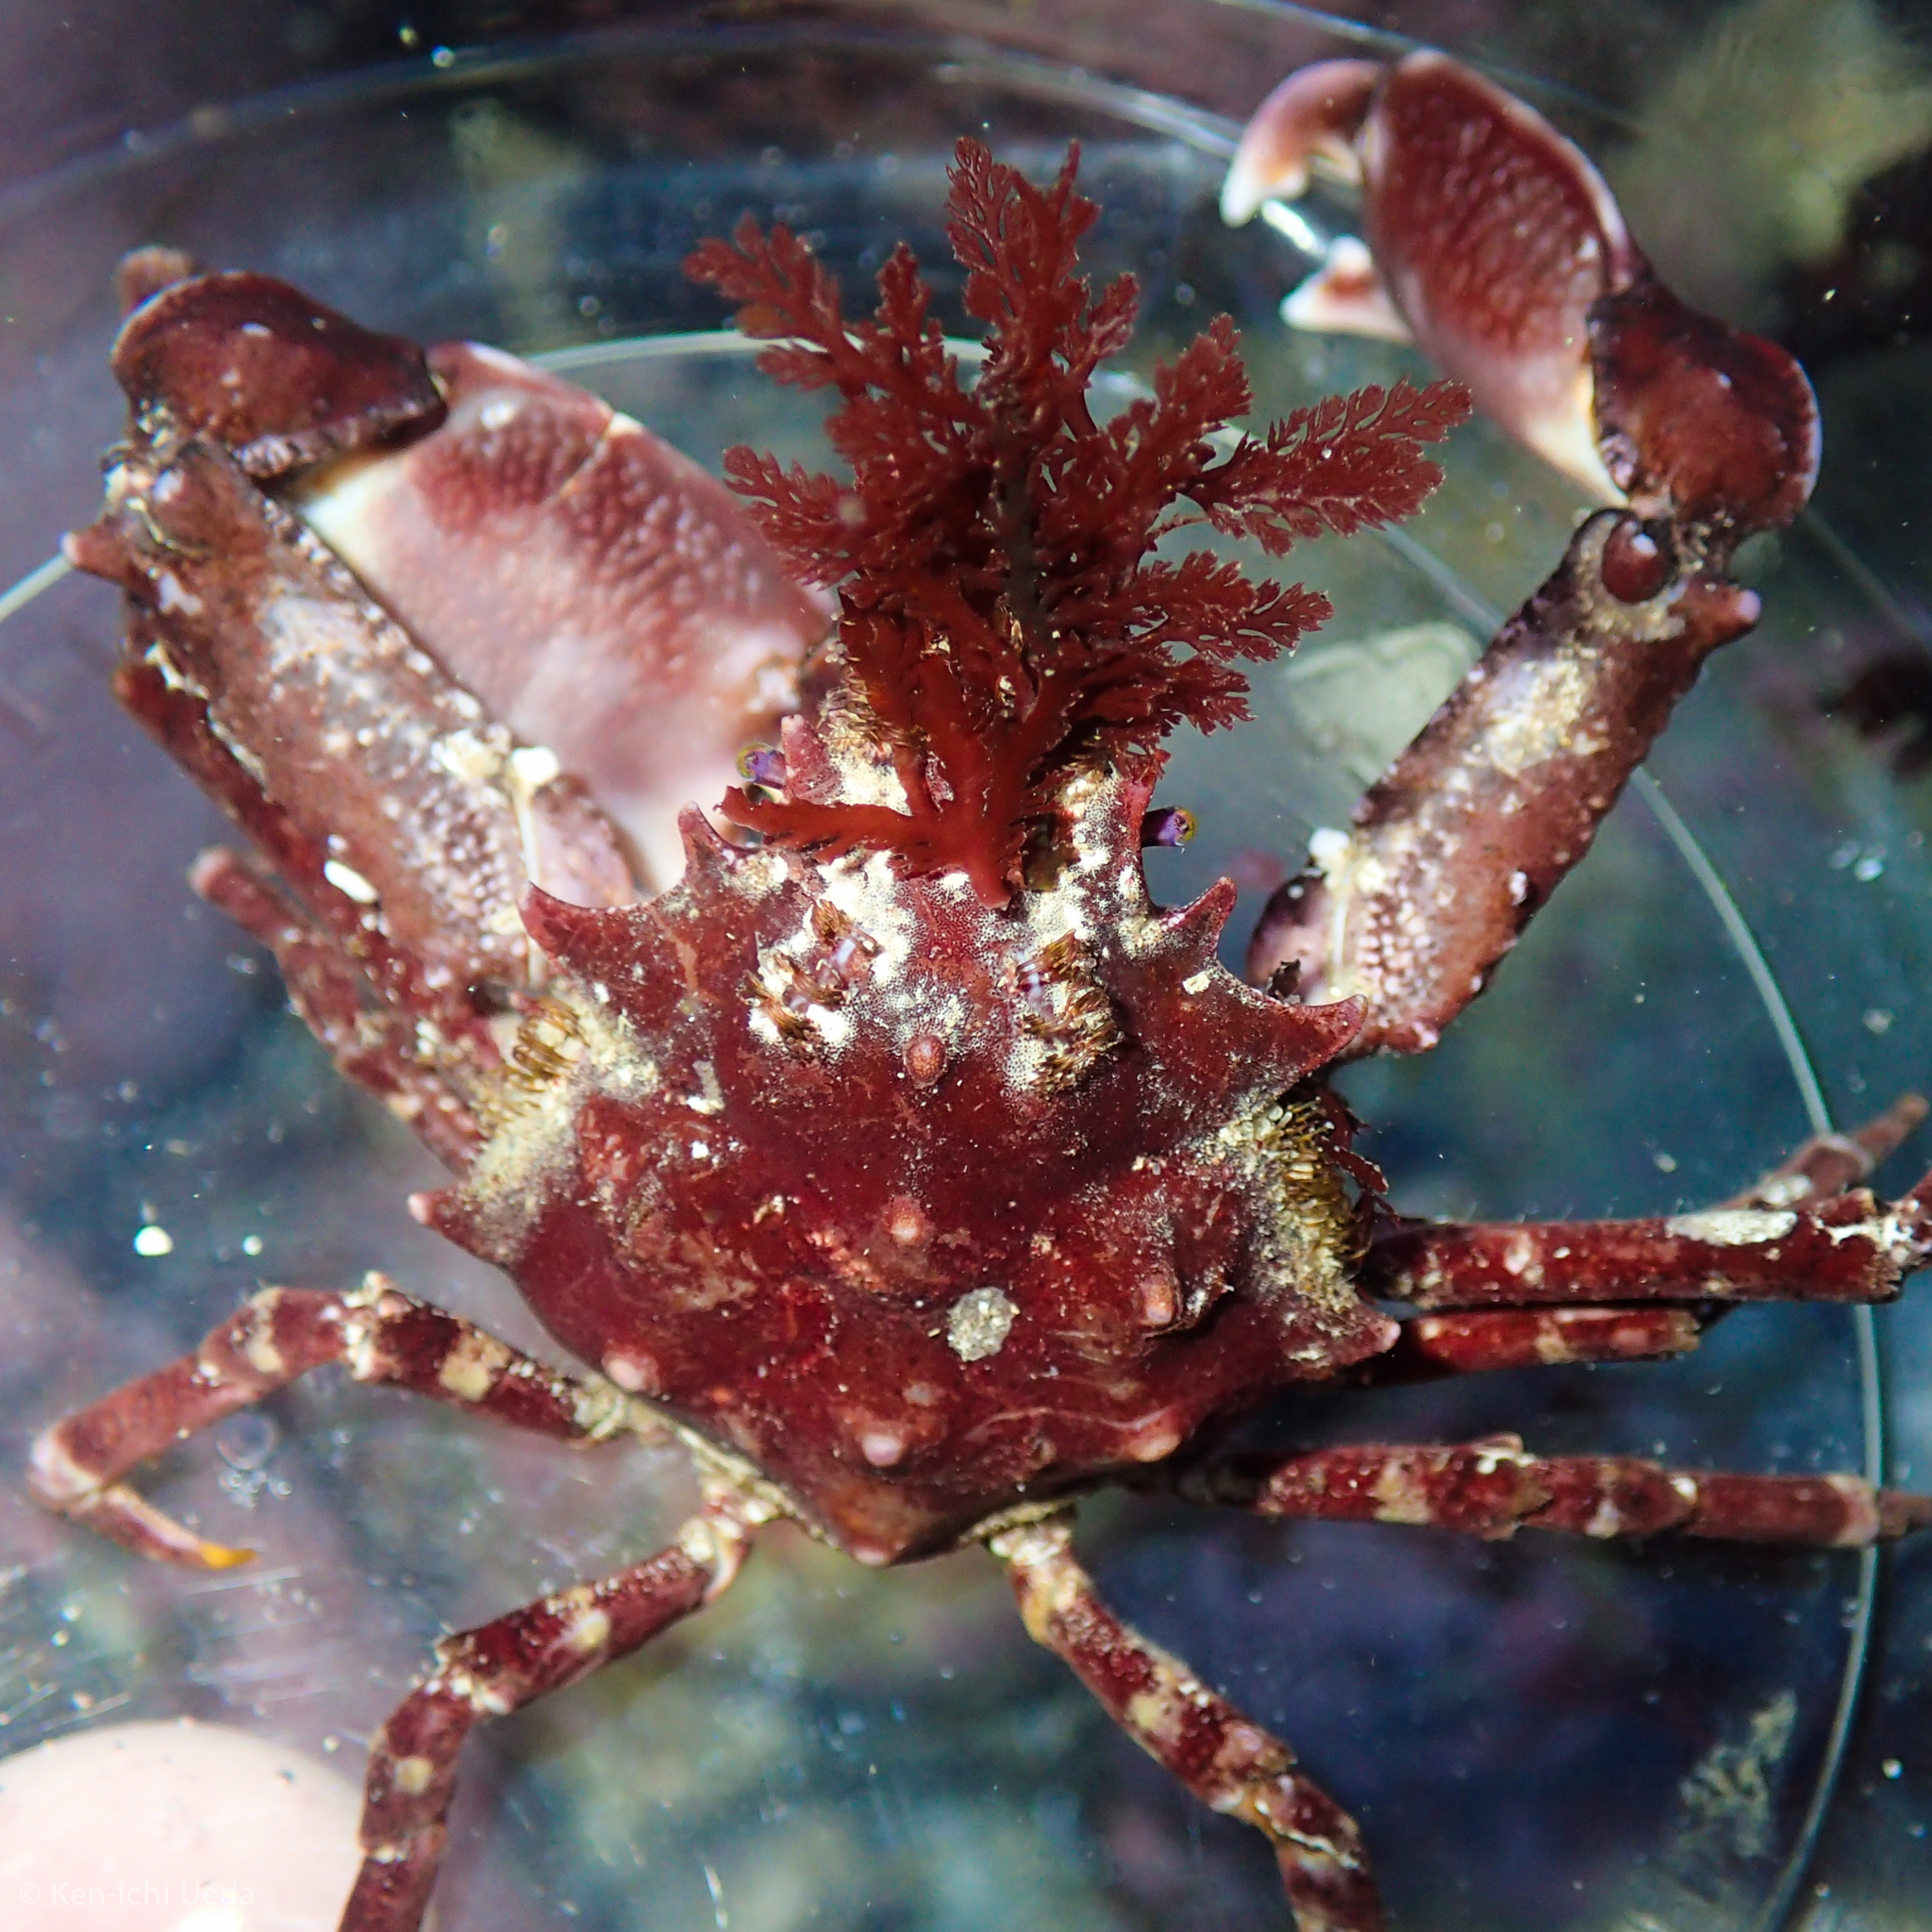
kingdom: Animalia
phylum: Arthropoda
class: Malacostraca
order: Decapoda
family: Epialtidae
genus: Pugettia
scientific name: Pugettia richii
